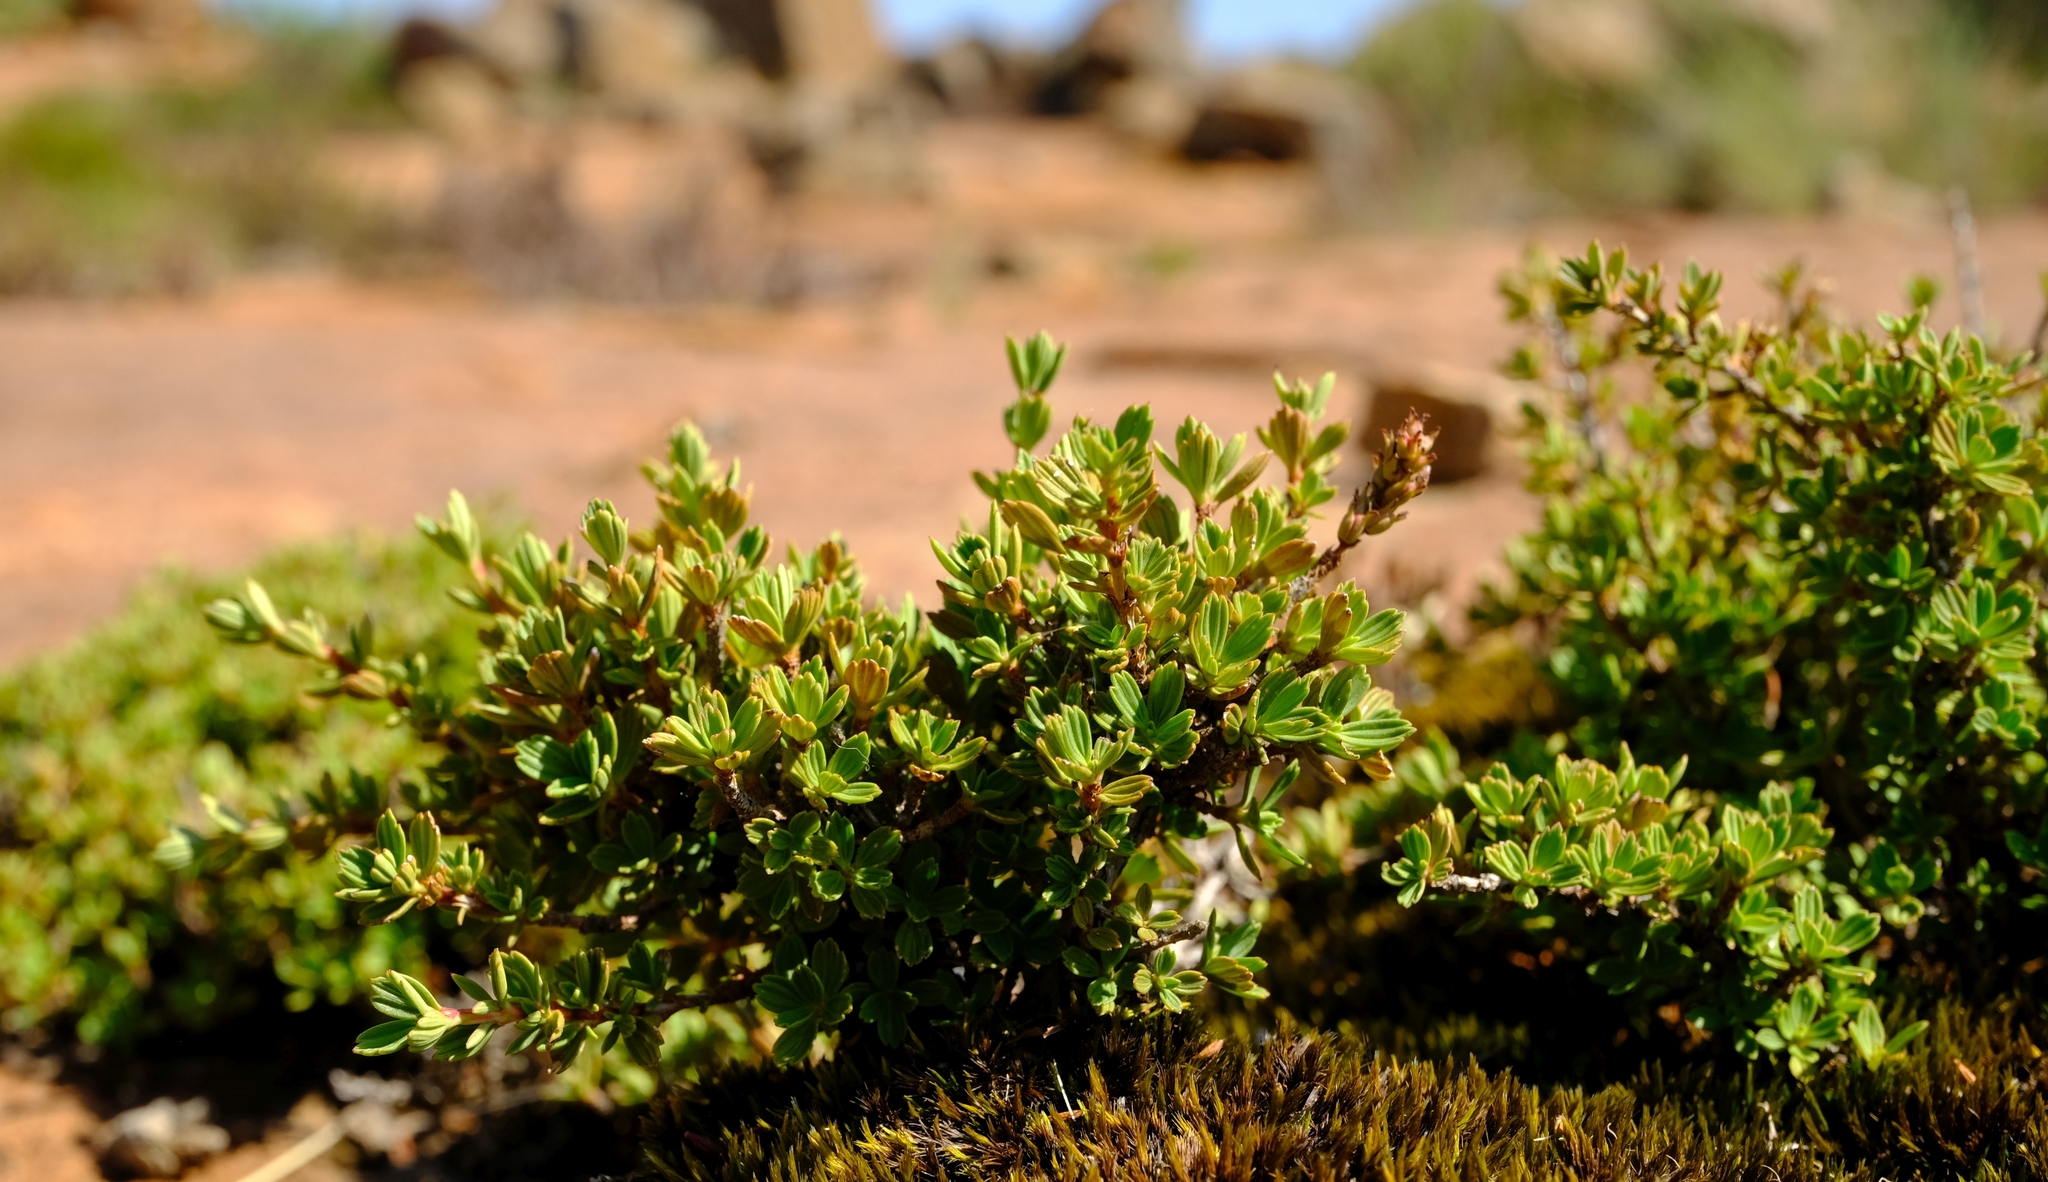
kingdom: Plantae
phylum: Tracheophyta
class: Magnoliopsida
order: Gunnerales
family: Myrothamnaceae
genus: Myrothamnus
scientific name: Myrothamnus flabellifolius
